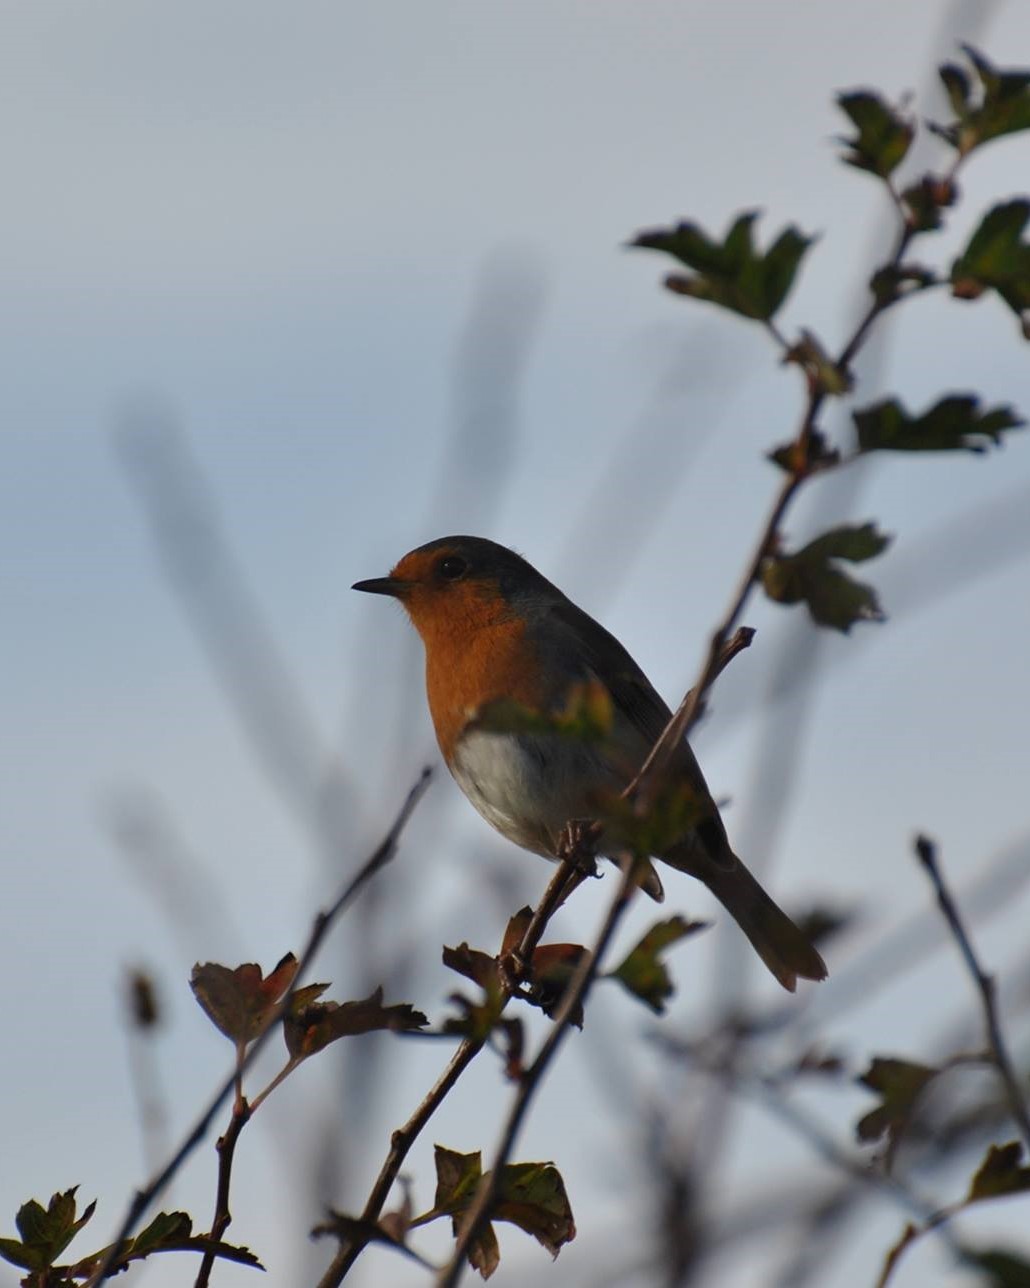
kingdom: Animalia
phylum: Chordata
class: Aves
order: Passeriformes
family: Muscicapidae
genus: Erithacus
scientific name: Erithacus rubecula
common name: European robin
